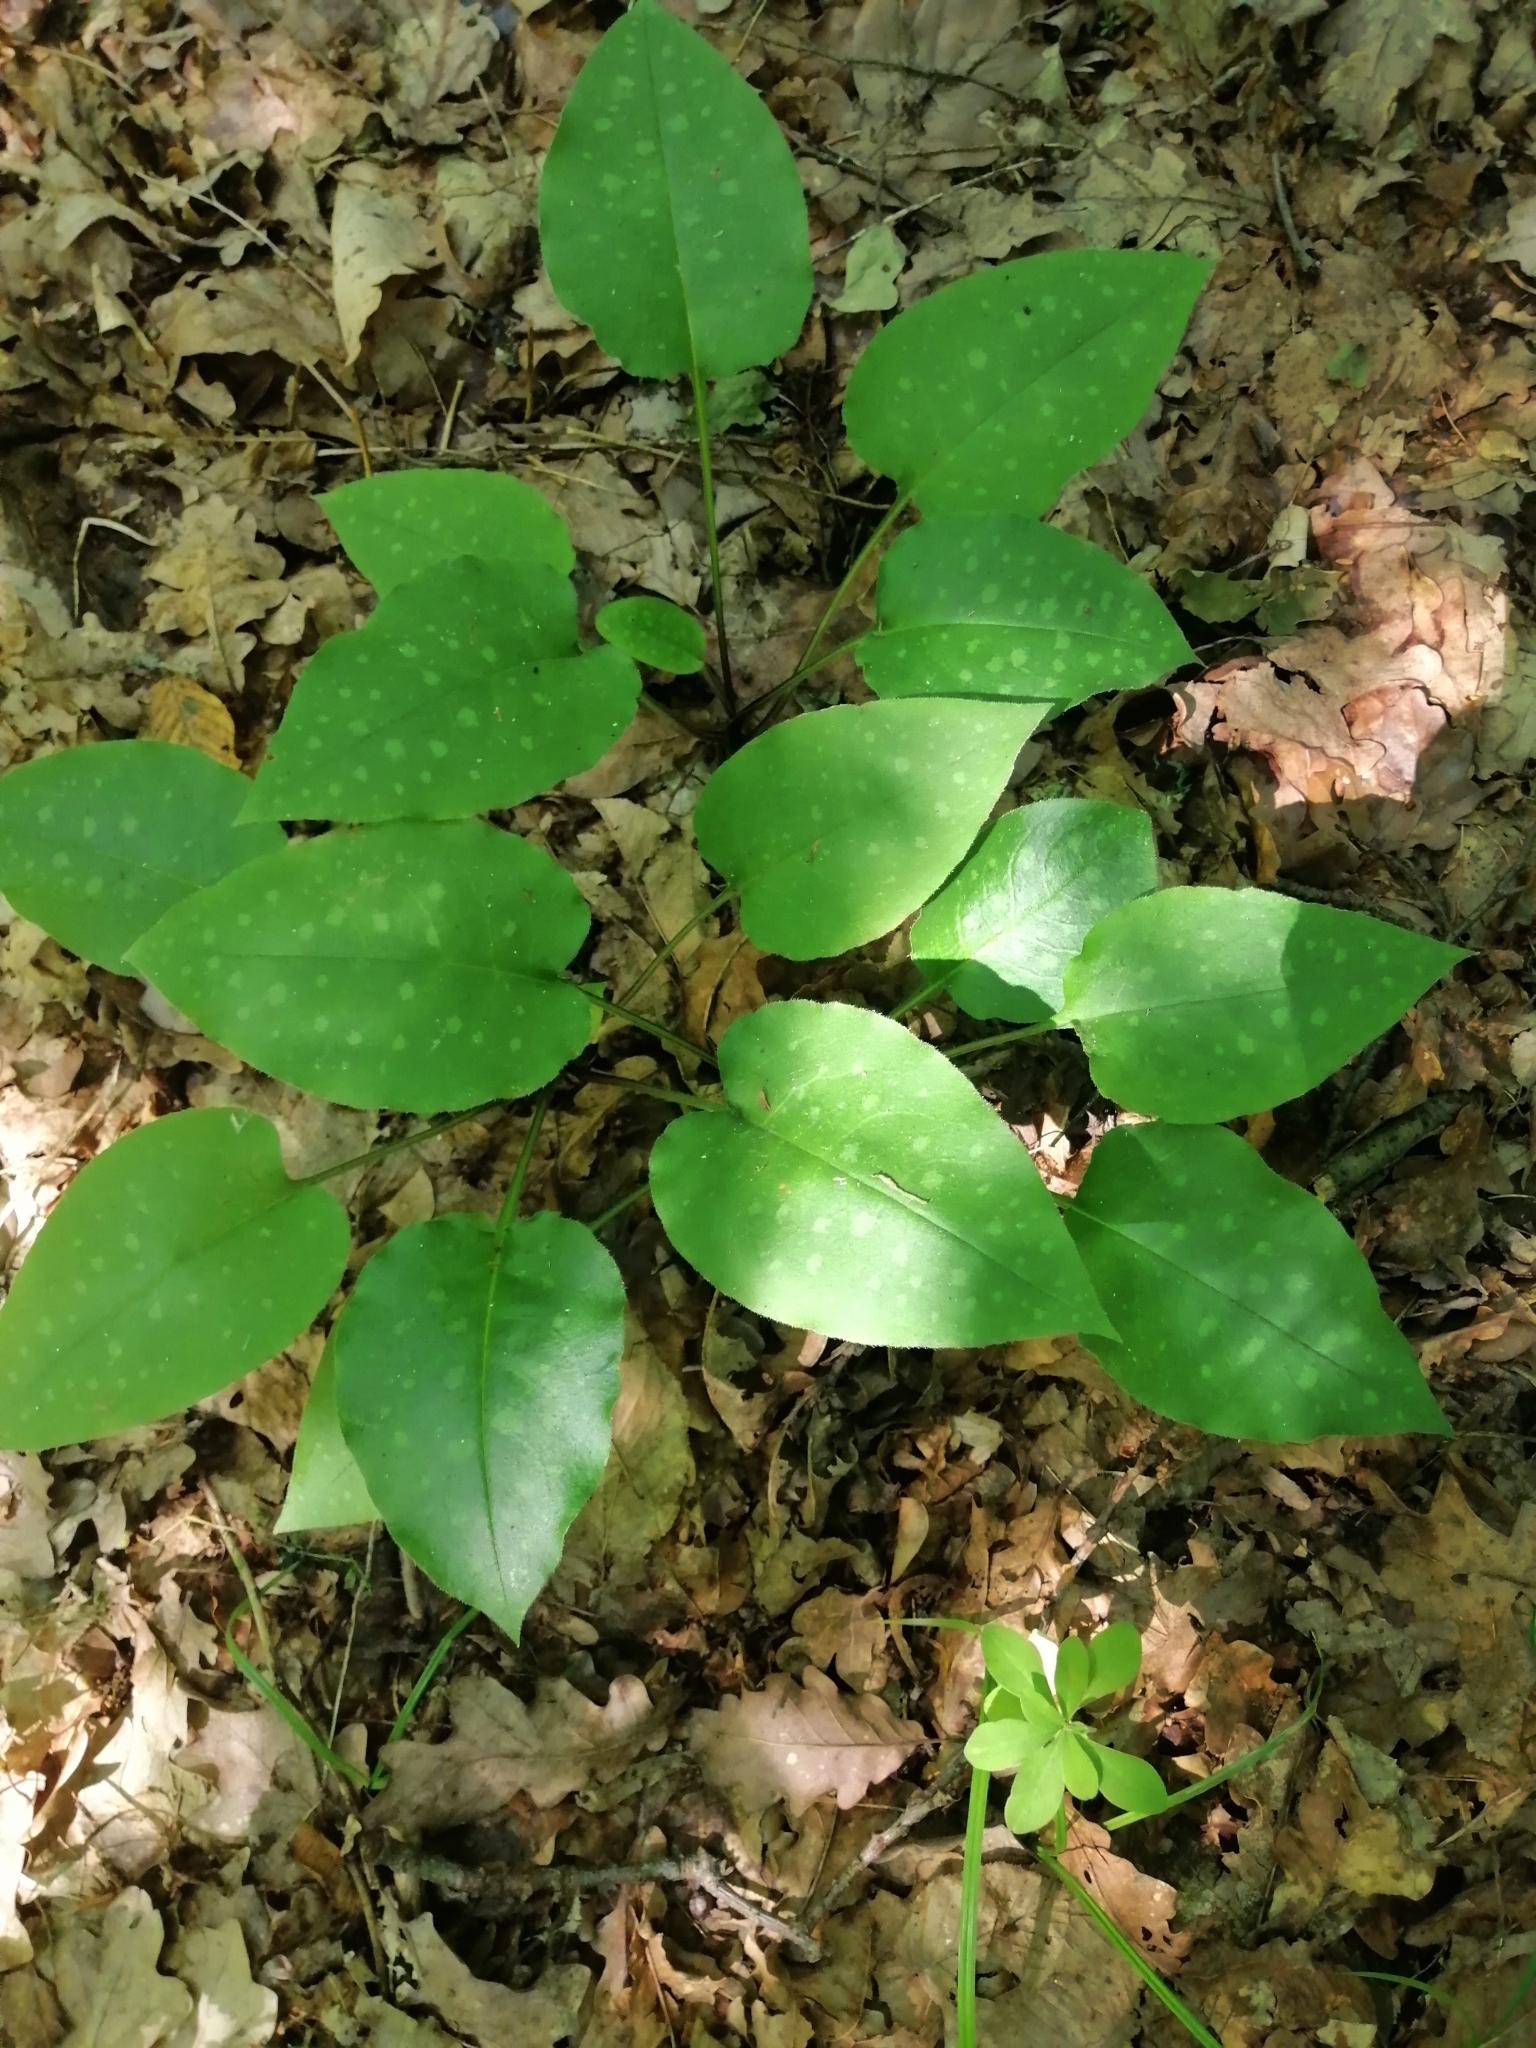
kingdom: Plantae
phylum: Tracheophyta
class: Magnoliopsida
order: Boraginales
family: Boraginaceae
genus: Pulmonaria
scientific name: Pulmonaria officinalis
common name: Lungwort
